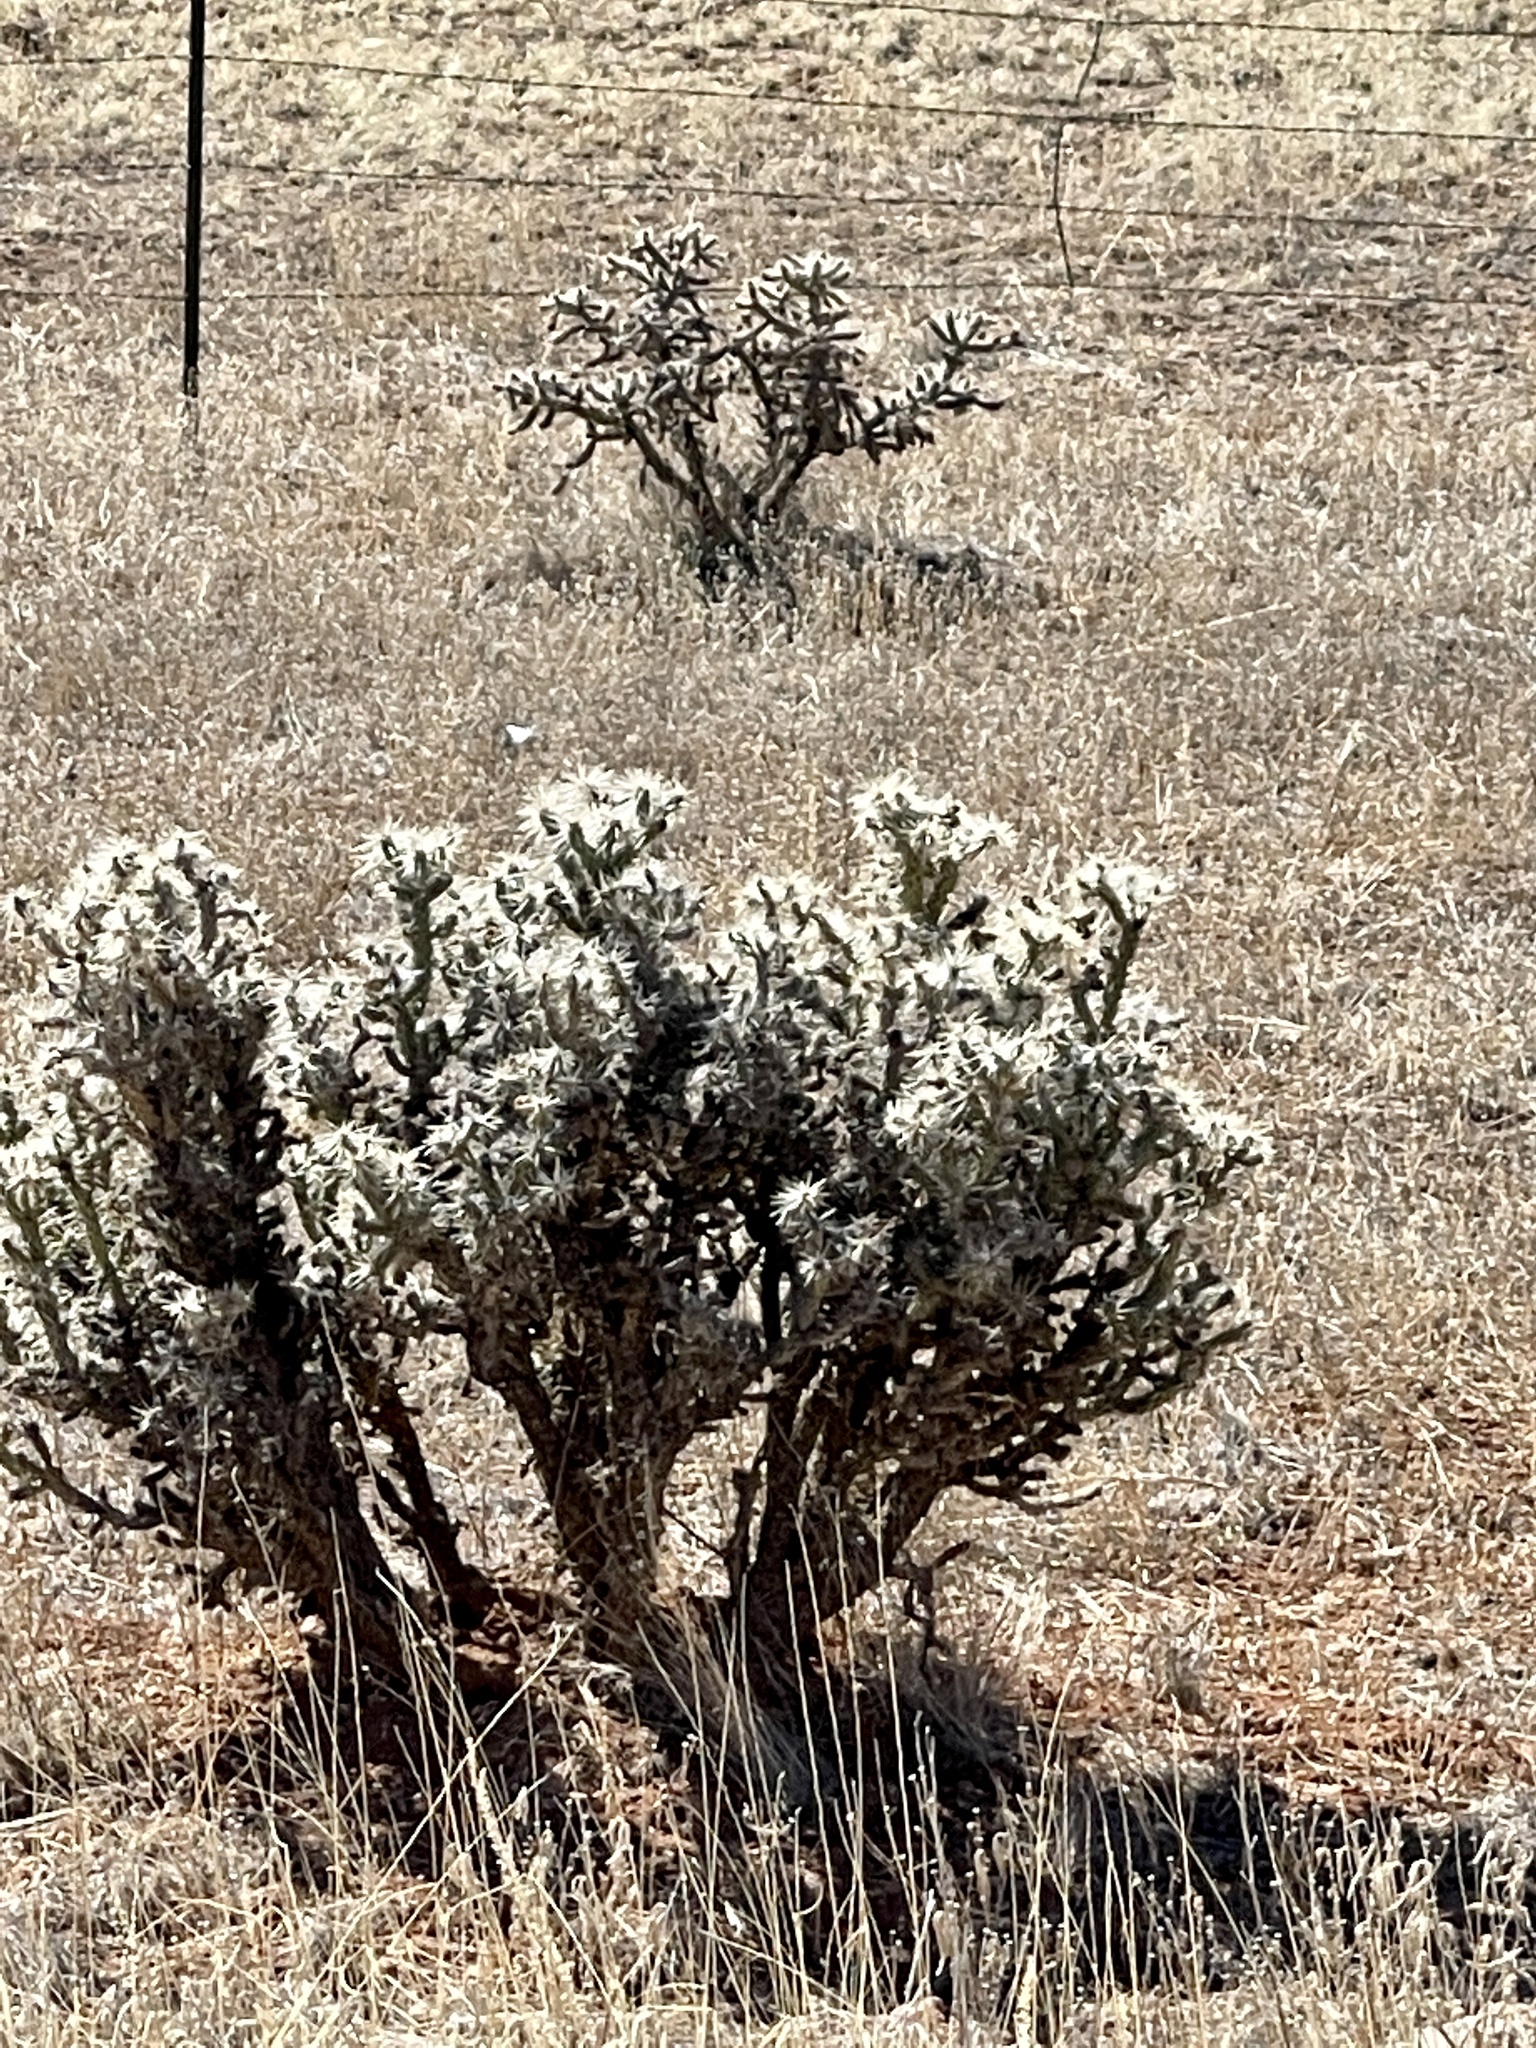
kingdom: Plantae
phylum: Tracheophyta
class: Magnoliopsida
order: Caryophyllales
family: Cactaceae
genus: Cylindropuntia
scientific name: Cylindropuntia whipplei
